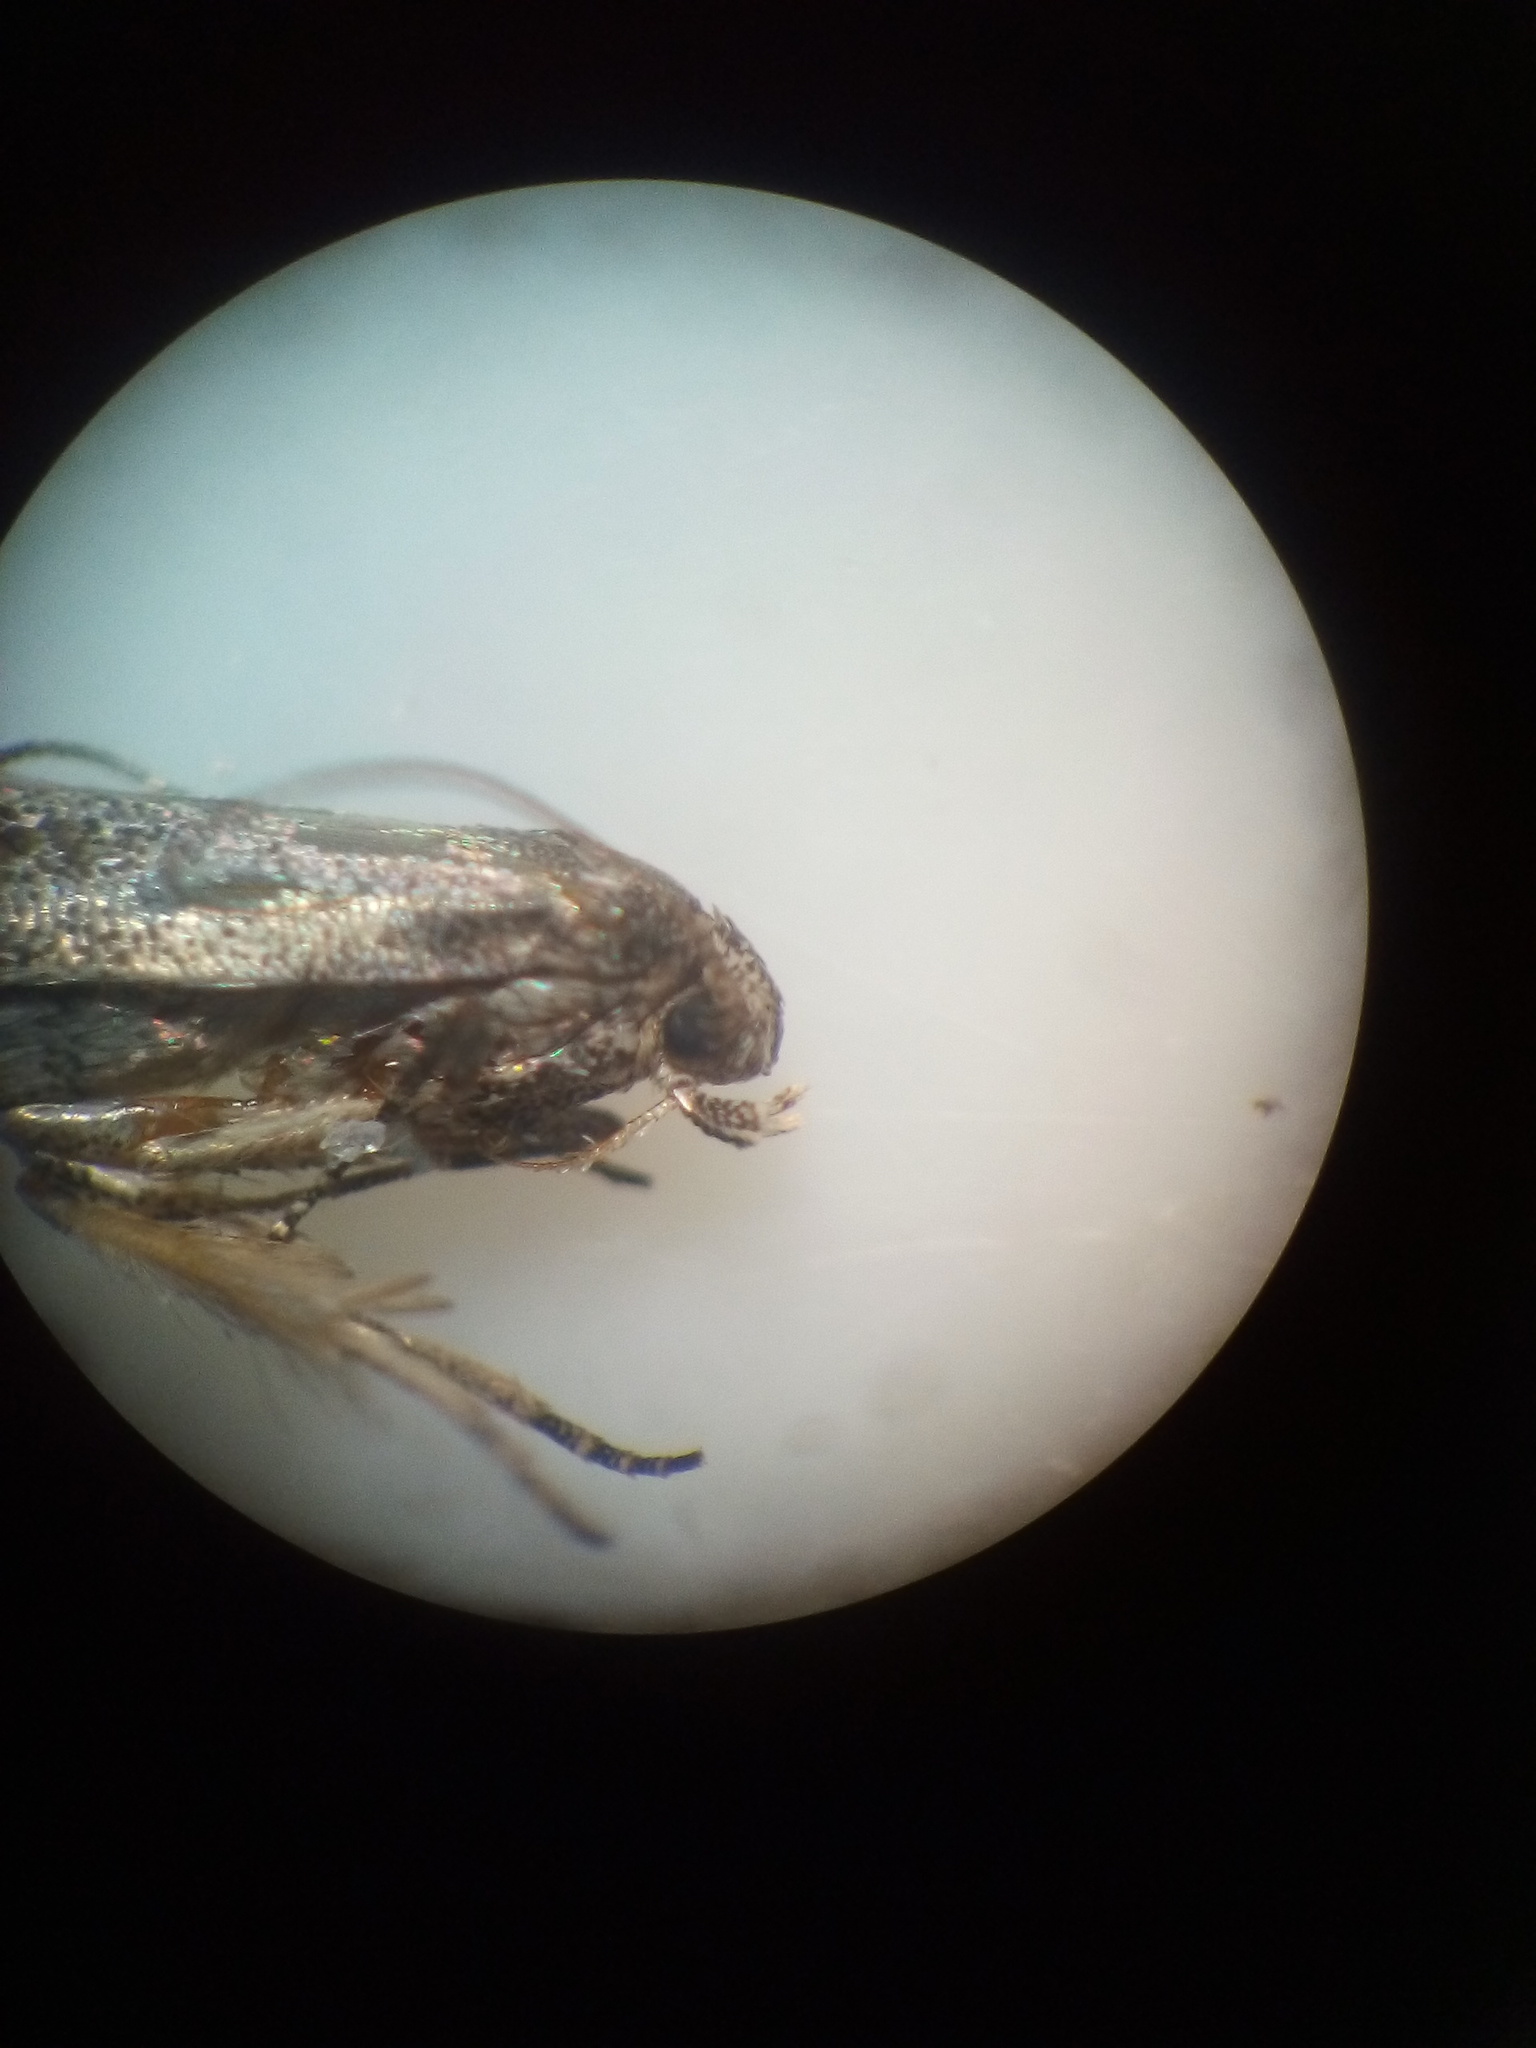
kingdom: Animalia
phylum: Arthropoda
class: Insecta
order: Lepidoptera
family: Gelechiidae
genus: Epiphthora
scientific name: Epiphthora melanombra
